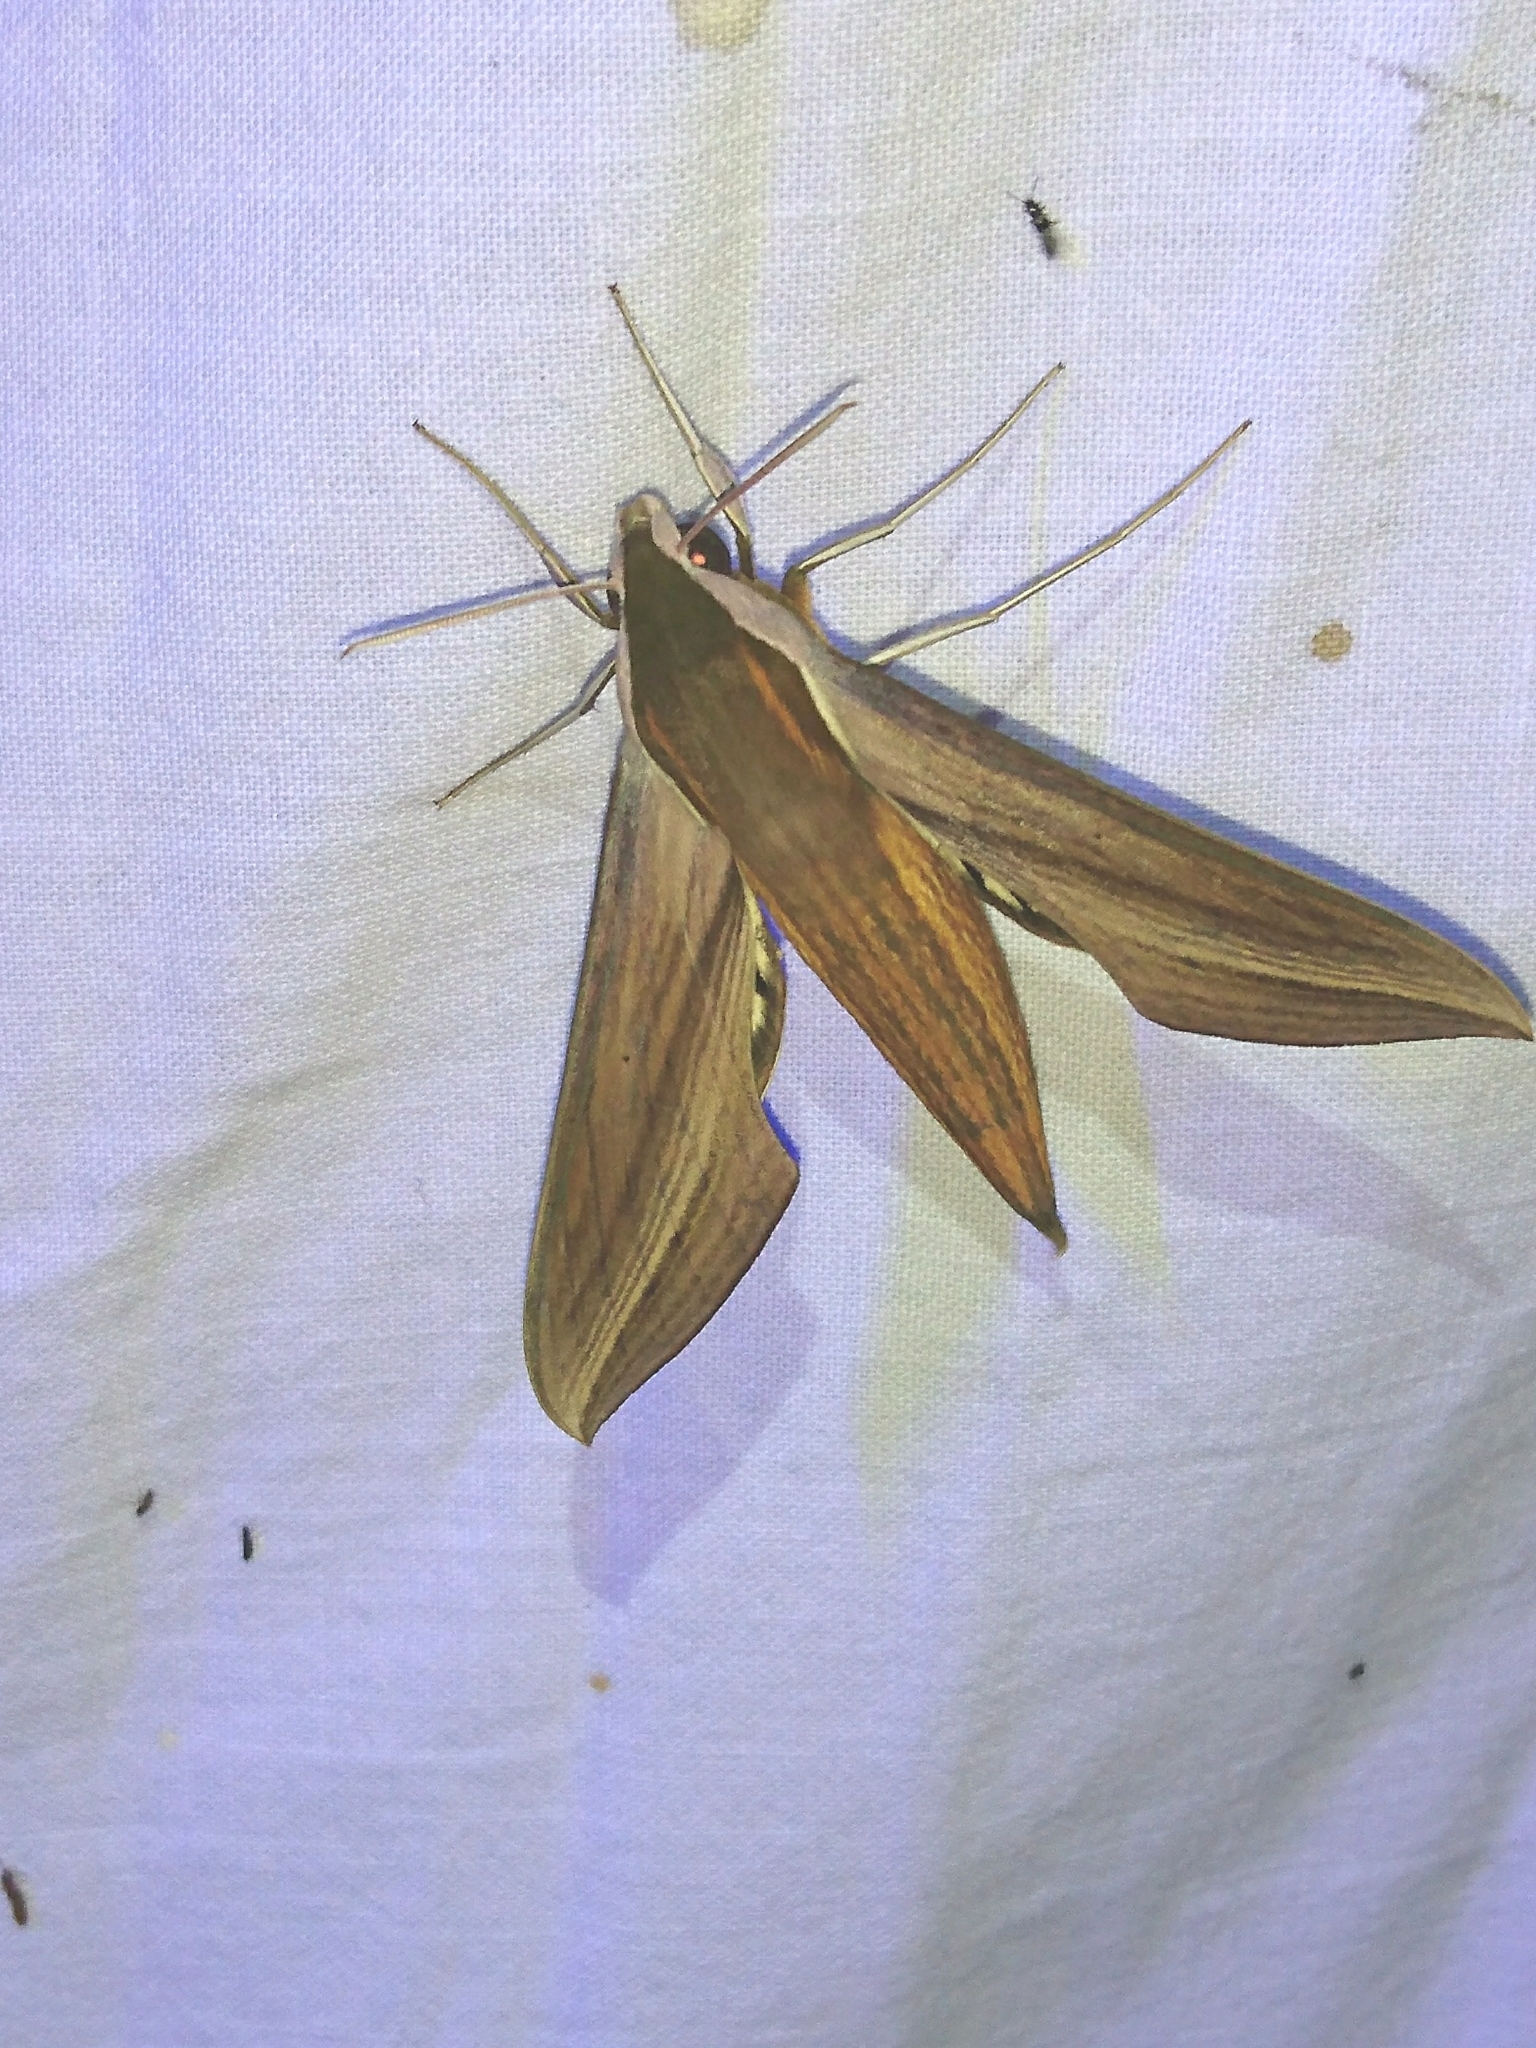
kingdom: Animalia
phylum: Arthropoda
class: Insecta
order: Lepidoptera
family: Sphingidae
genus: Xylophanes
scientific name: Xylophanes tersa
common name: Tersa sphinx
